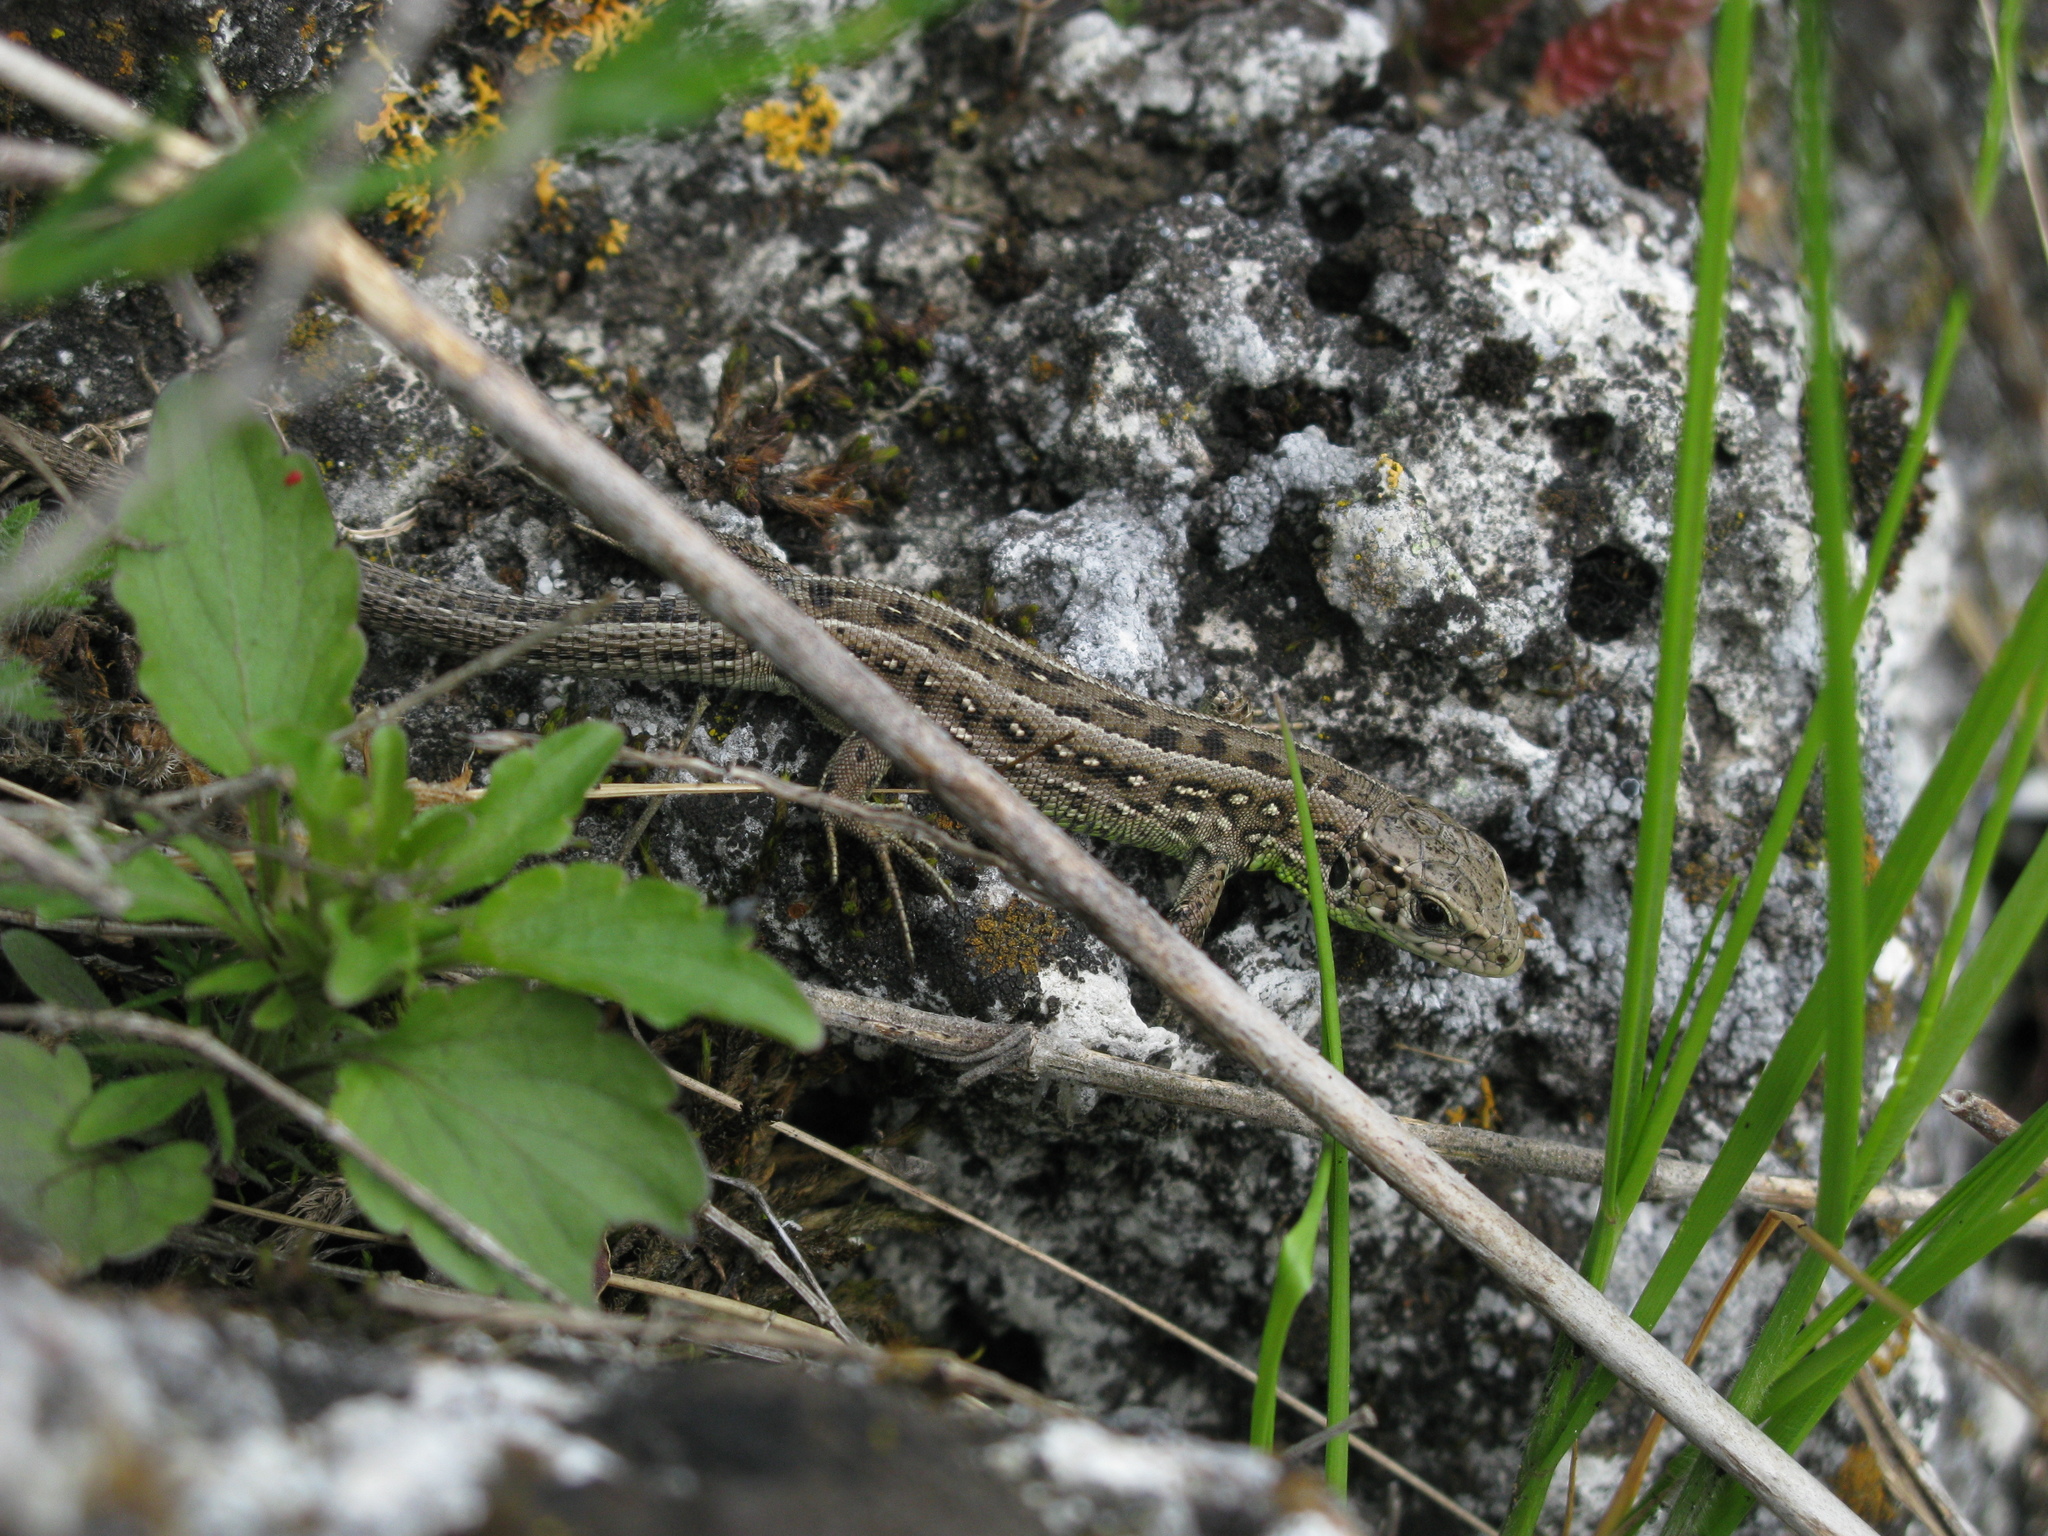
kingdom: Animalia
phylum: Chordata
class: Squamata
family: Lacertidae
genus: Lacerta
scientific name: Lacerta agilis
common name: Sand lizard
